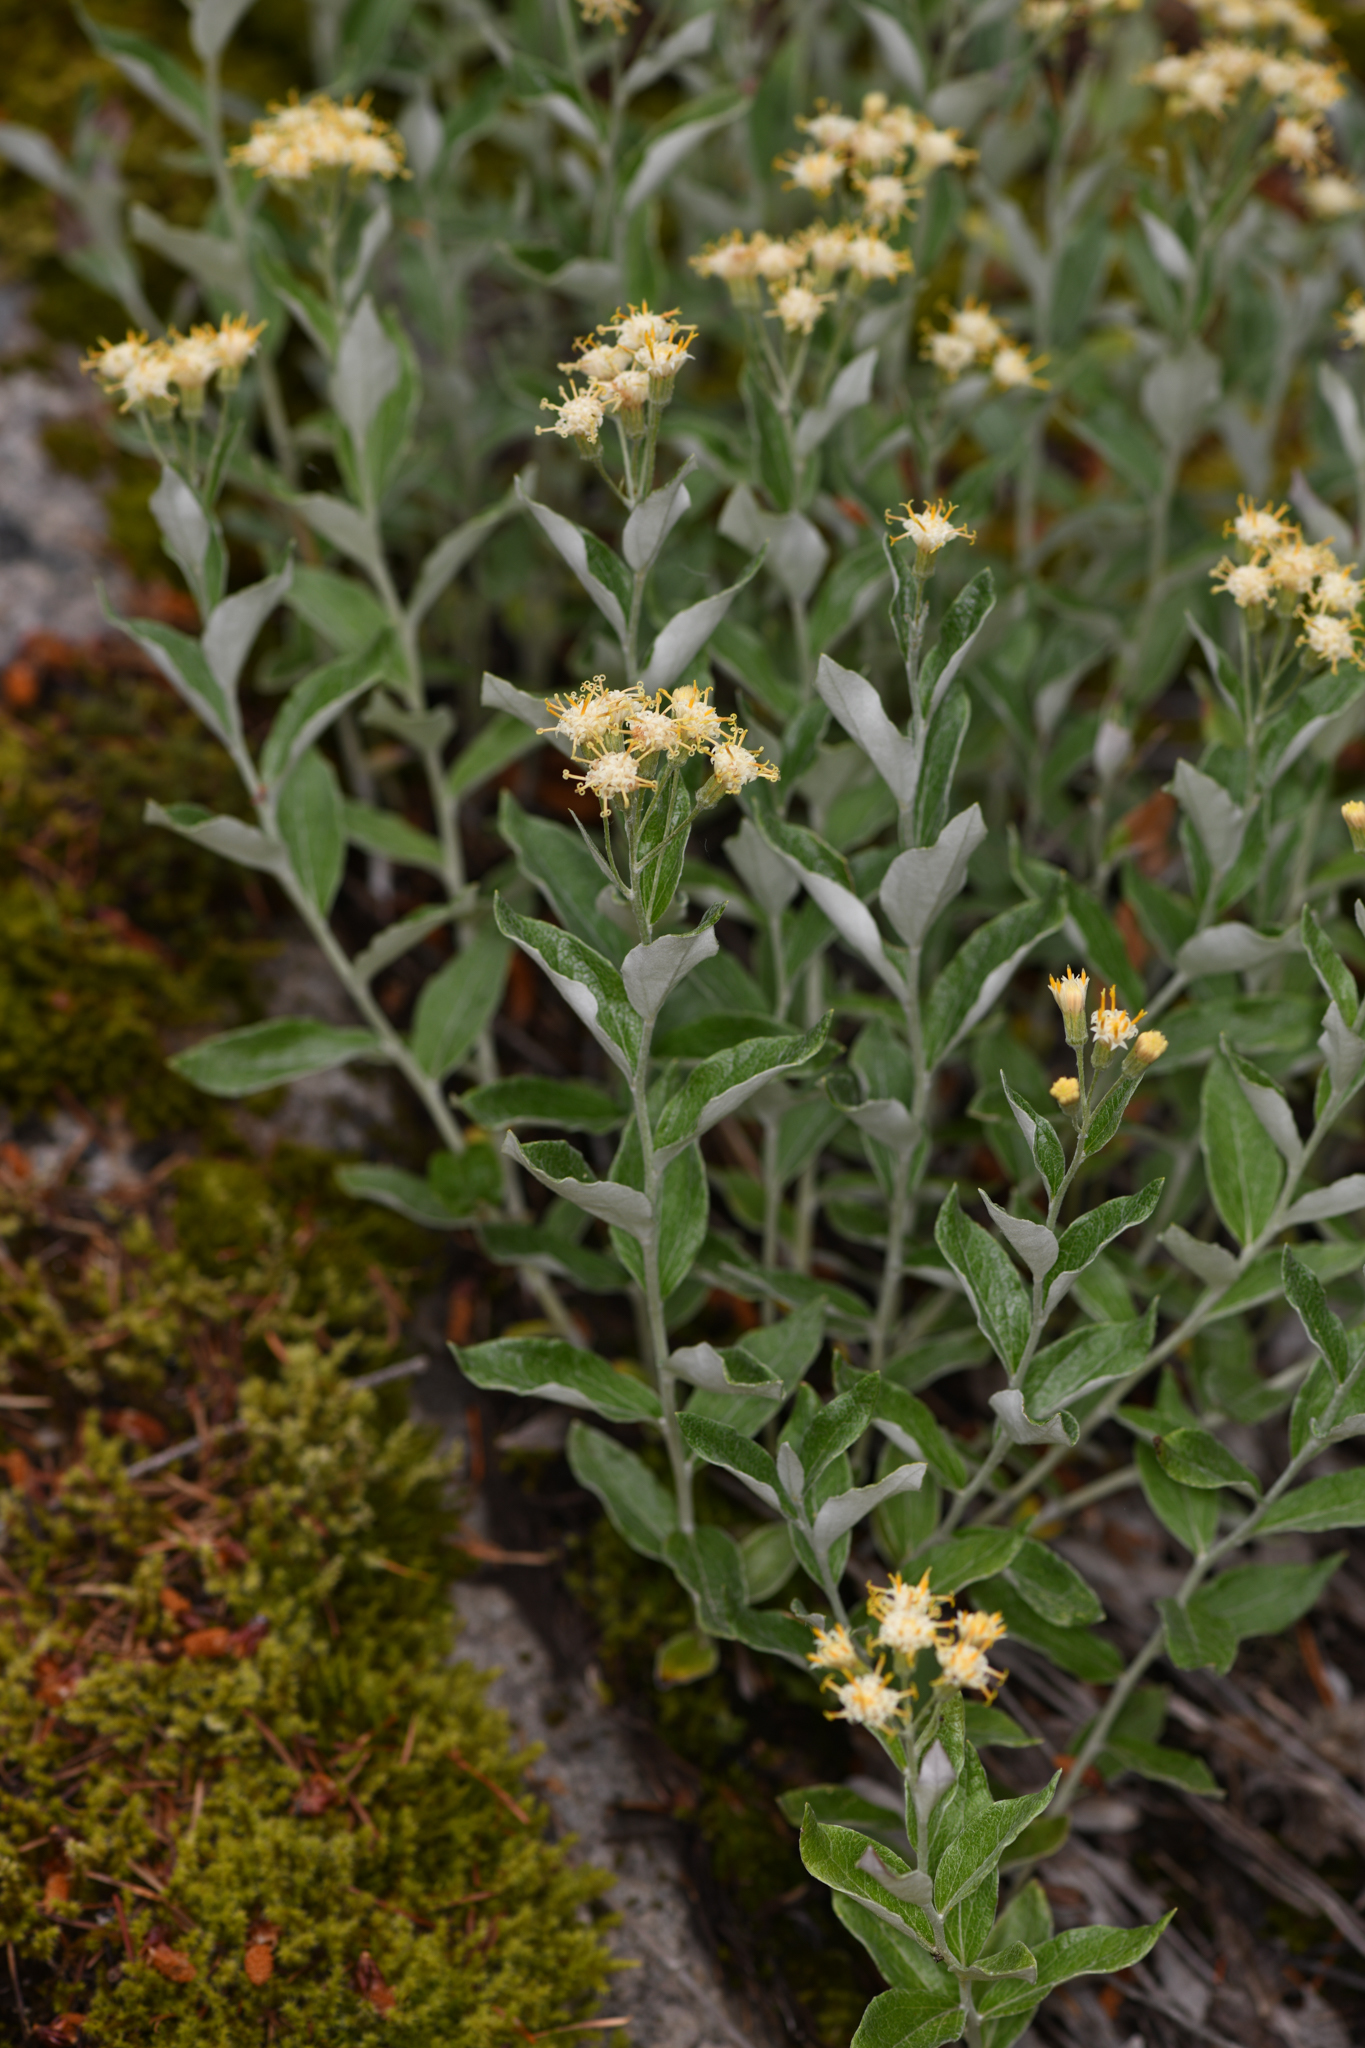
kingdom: Plantae
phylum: Tracheophyta
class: Magnoliopsida
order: Asterales
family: Asteraceae
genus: Luina
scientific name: Luina hypoleuca
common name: Little-leaved luina
